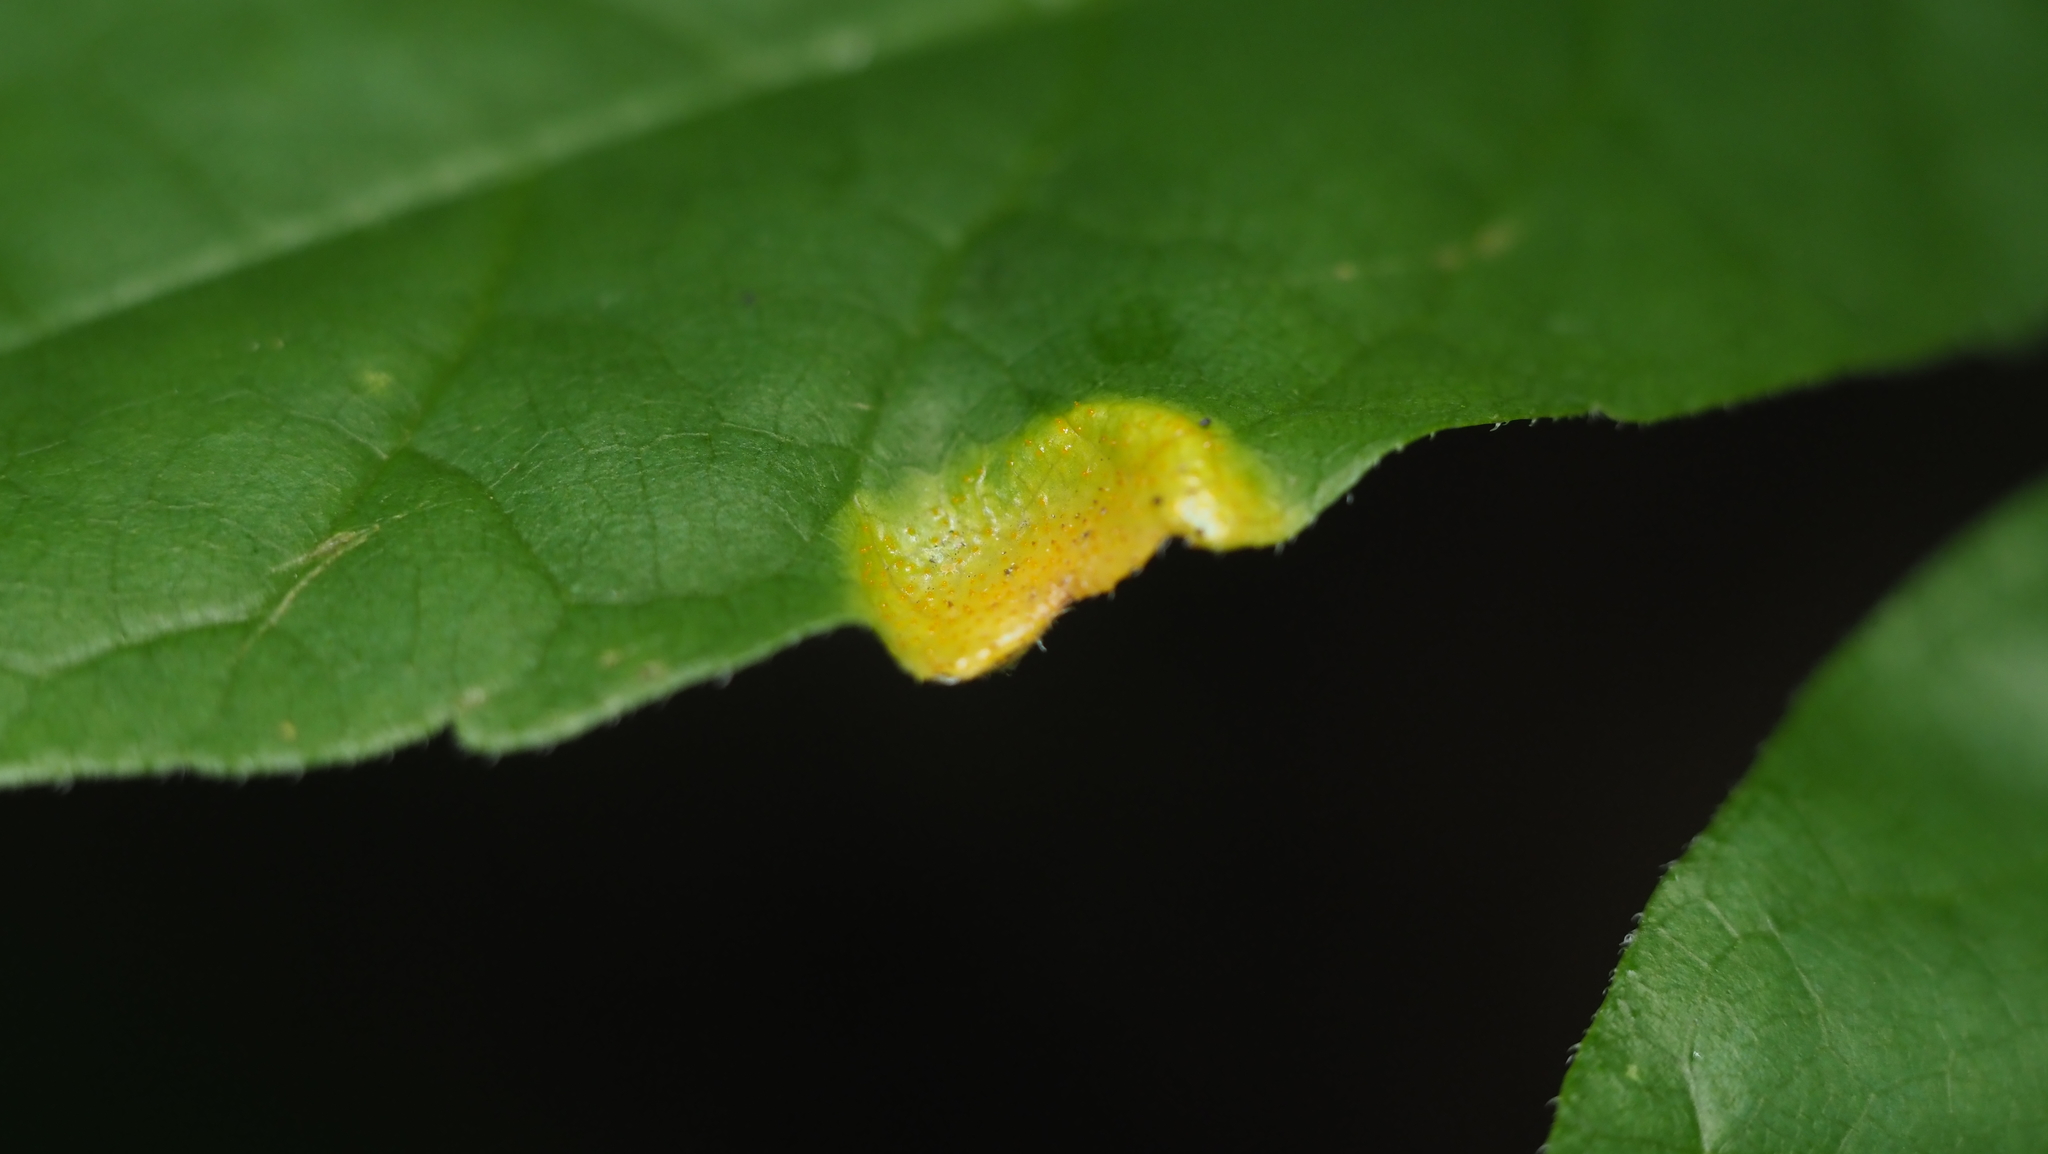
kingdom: Fungi
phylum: Basidiomycota
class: Pucciniomycetes
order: Pucciniales
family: Pucciniaceae
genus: Puccinia
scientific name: Puccinia sparganioidis
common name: Ash rust
